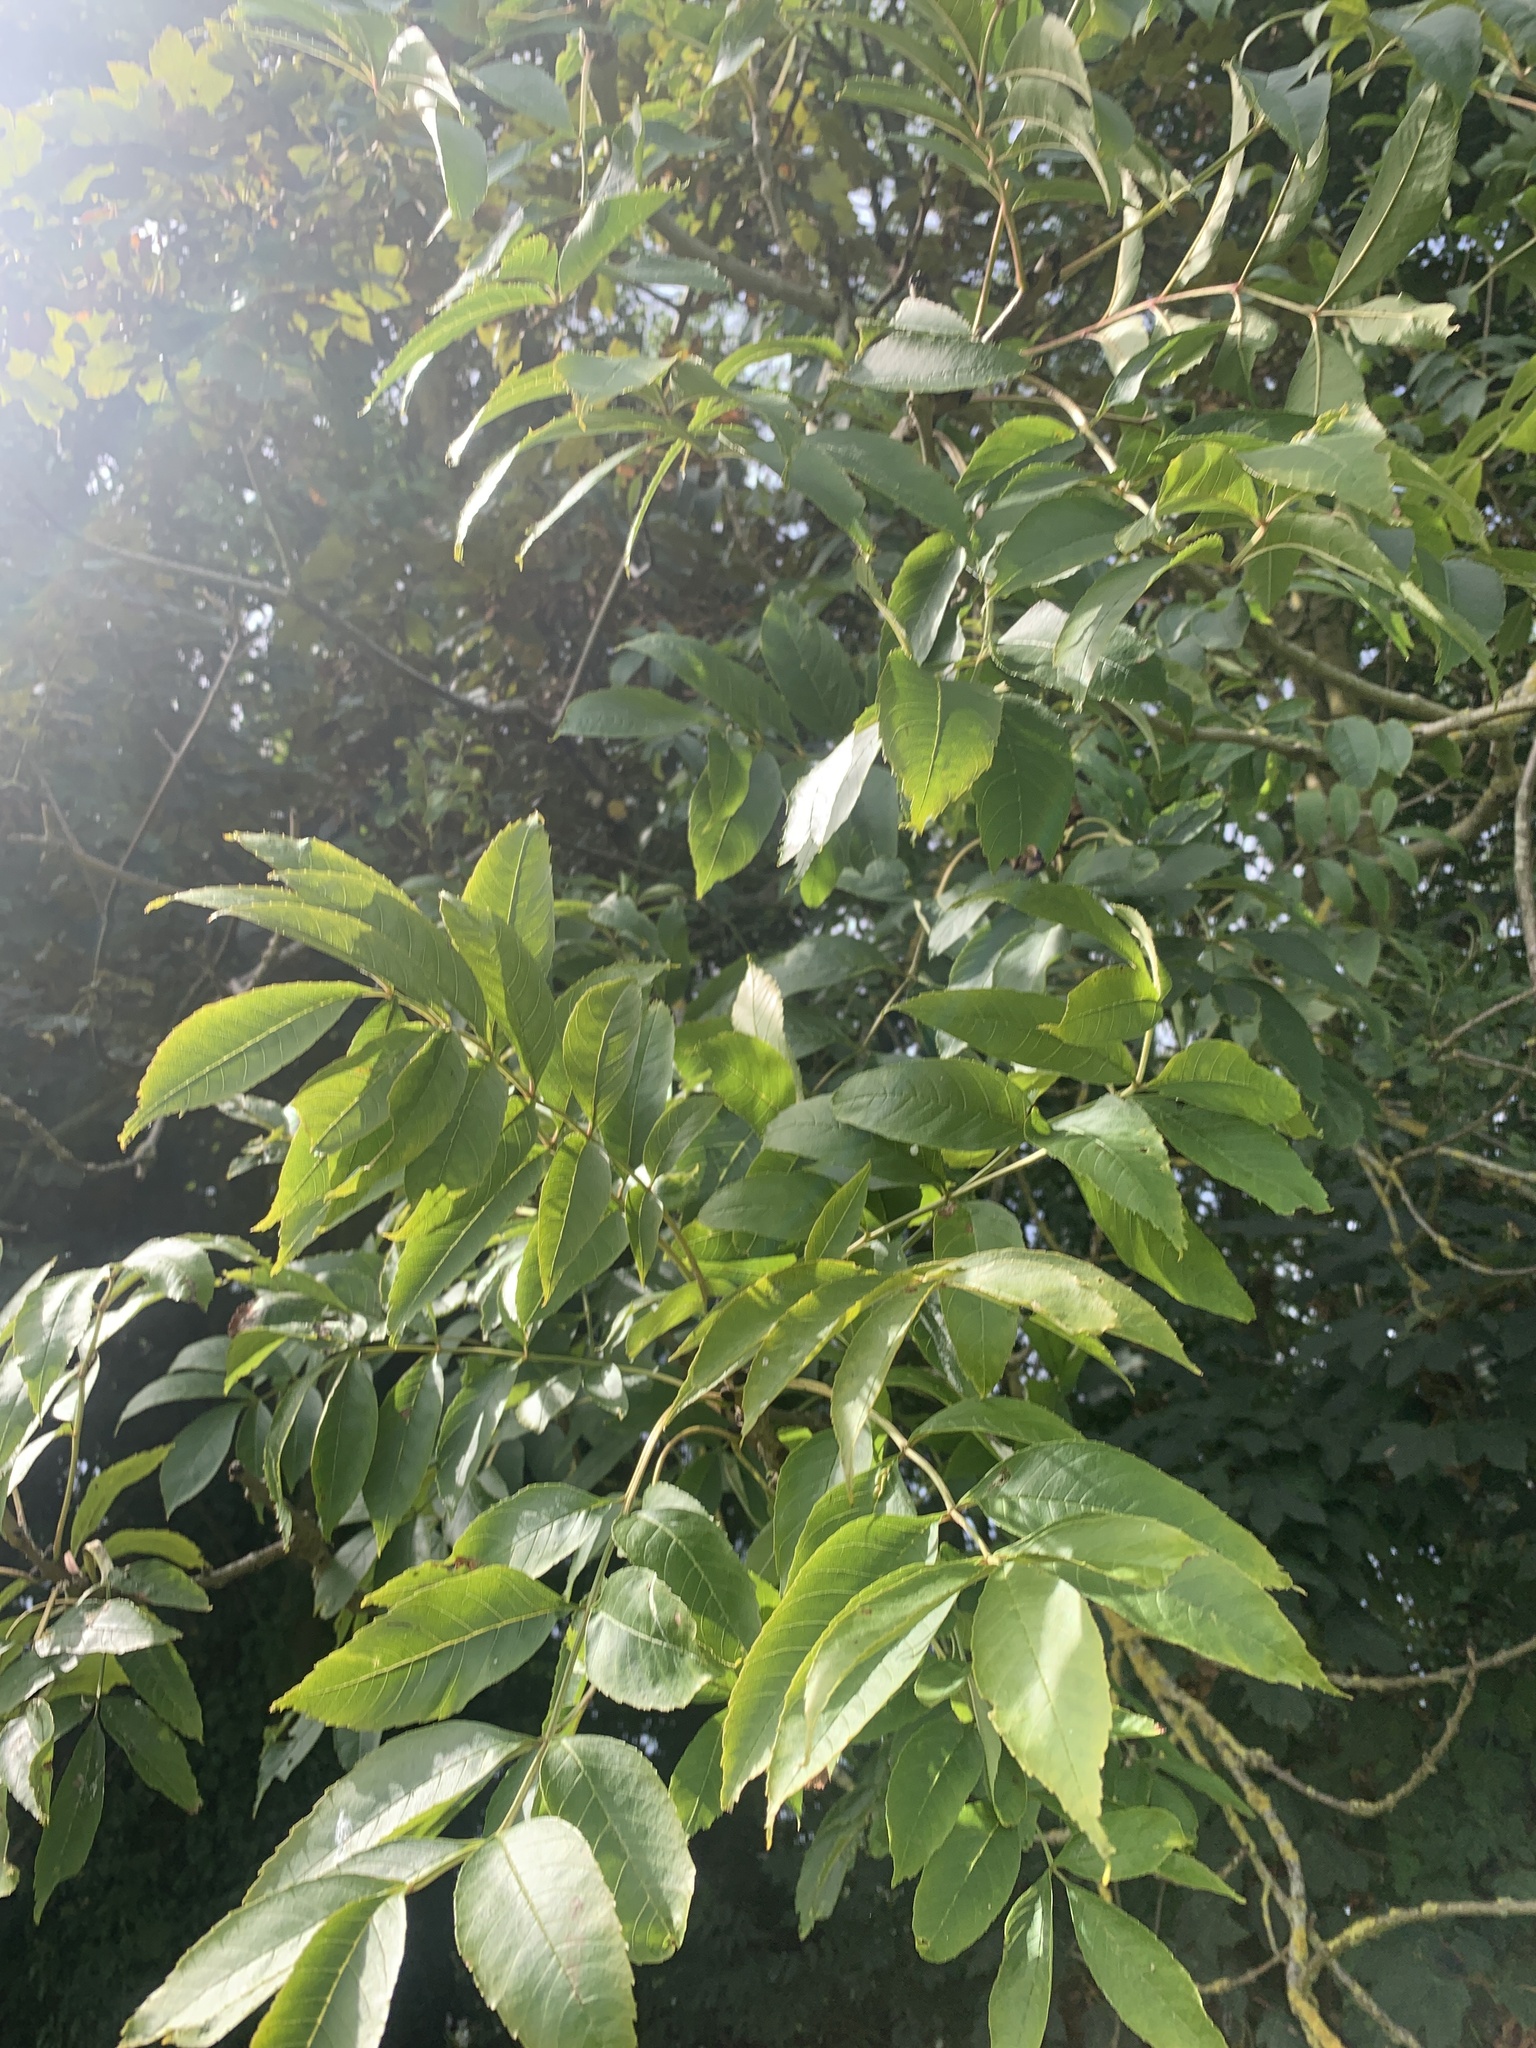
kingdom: Plantae
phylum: Tracheophyta
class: Magnoliopsida
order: Lamiales
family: Oleaceae
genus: Fraxinus
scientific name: Fraxinus excelsior
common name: European ash
